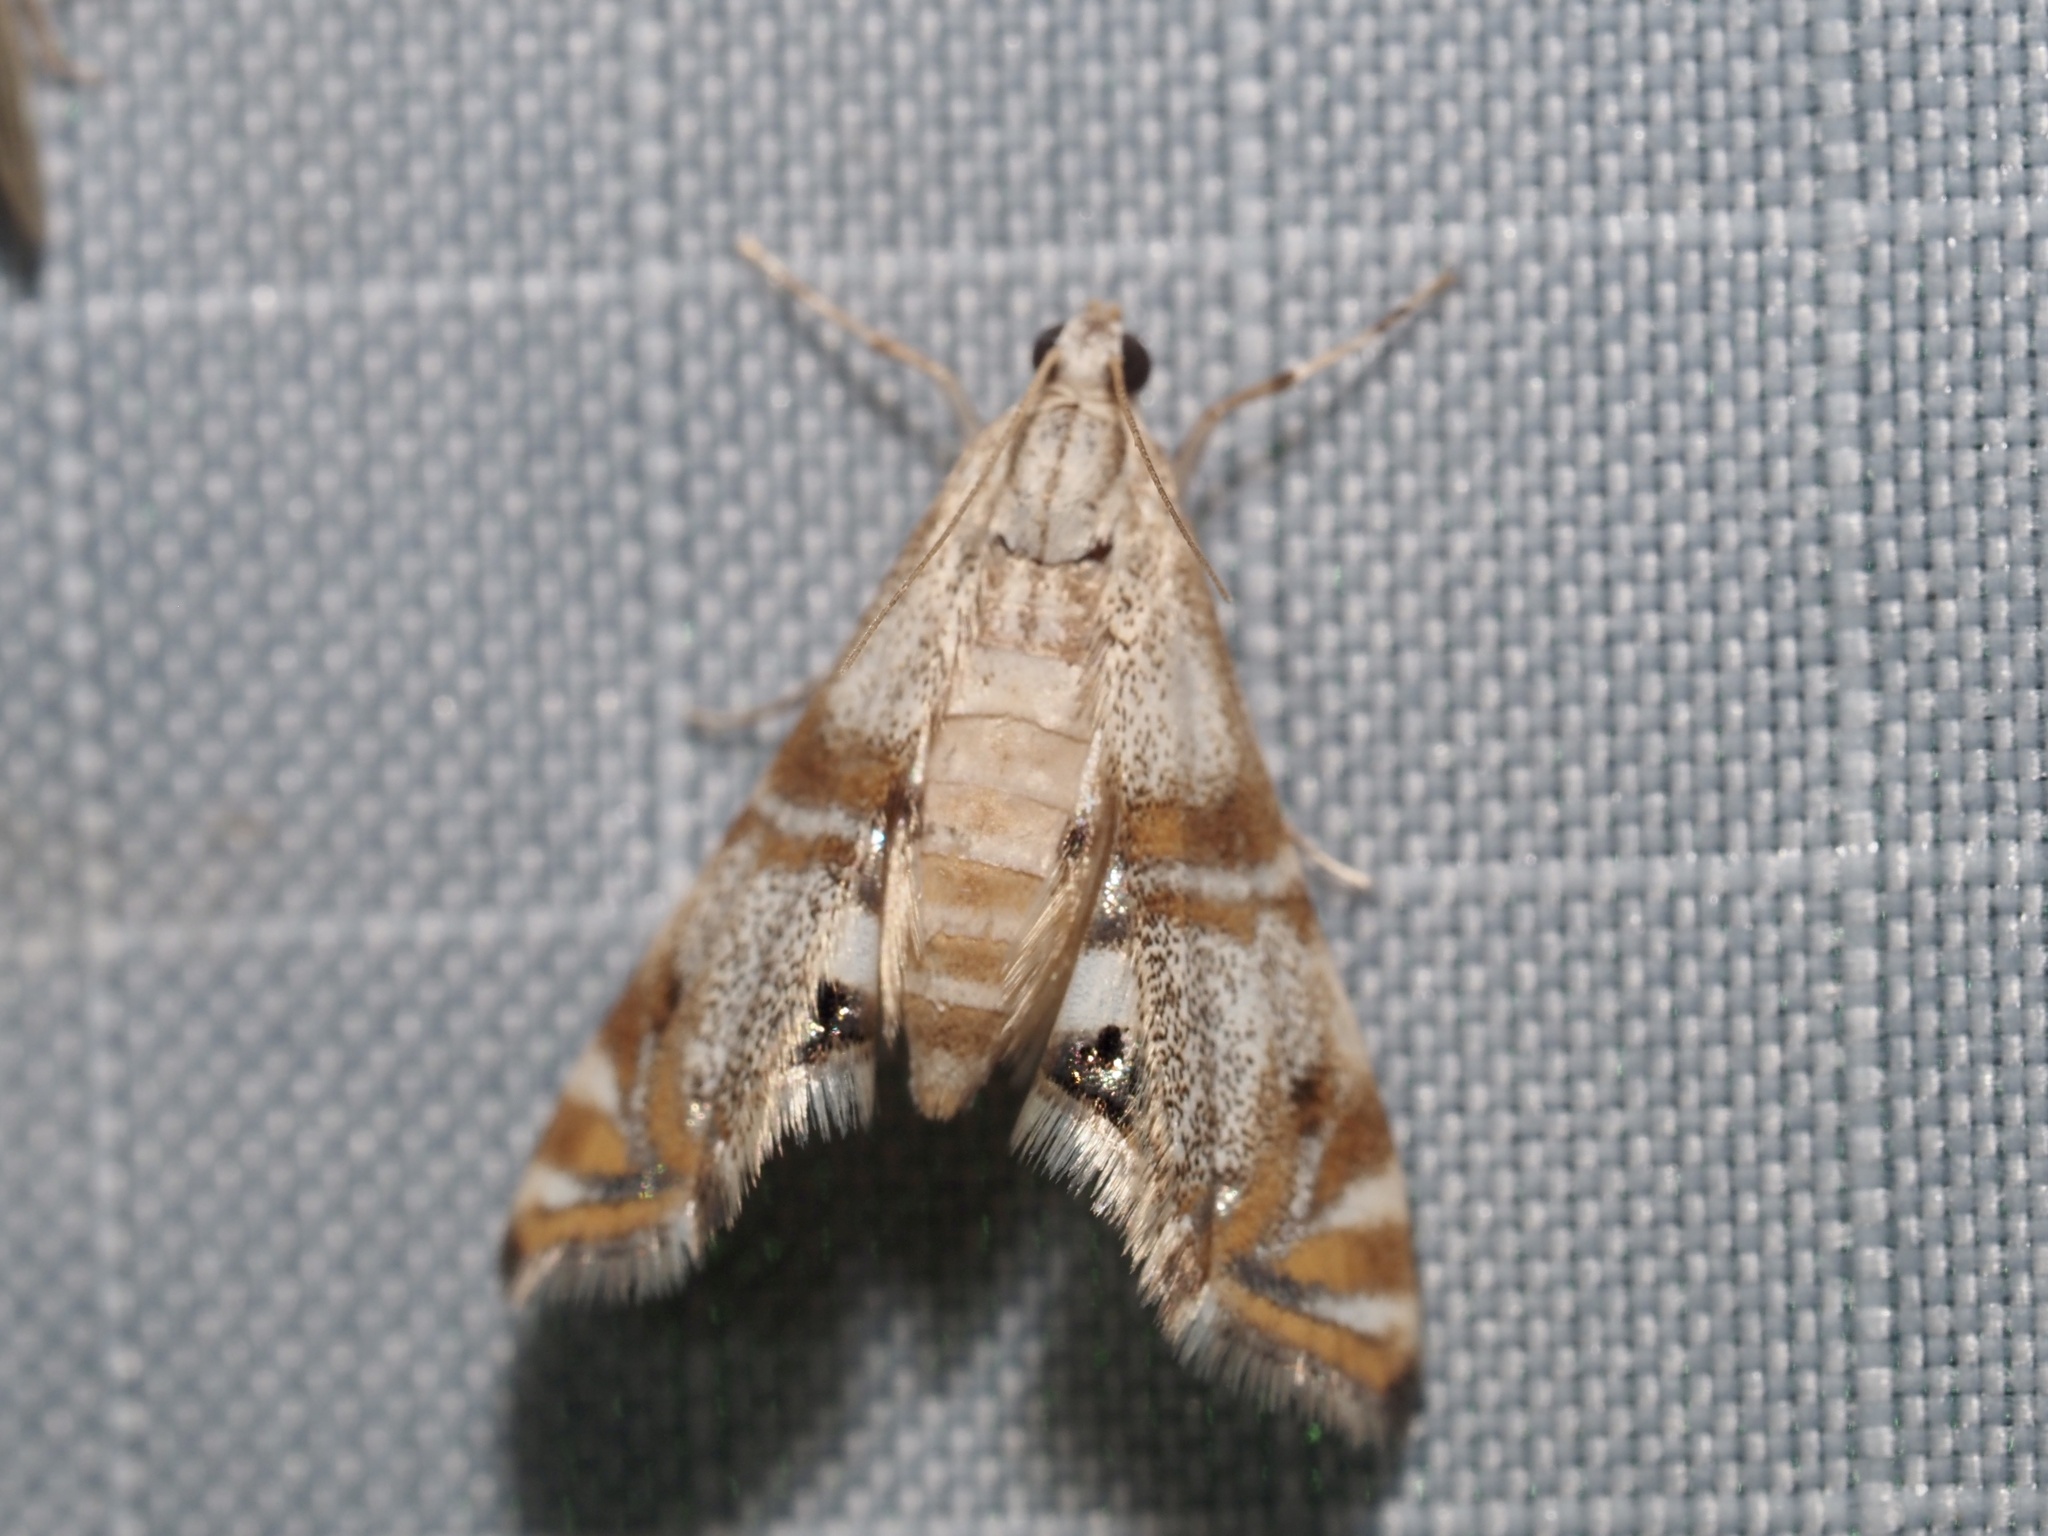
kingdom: Animalia
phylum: Arthropoda
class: Insecta
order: Lepidoptera
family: Crambidae
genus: Petrophila
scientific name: Petrophila bifascialis
